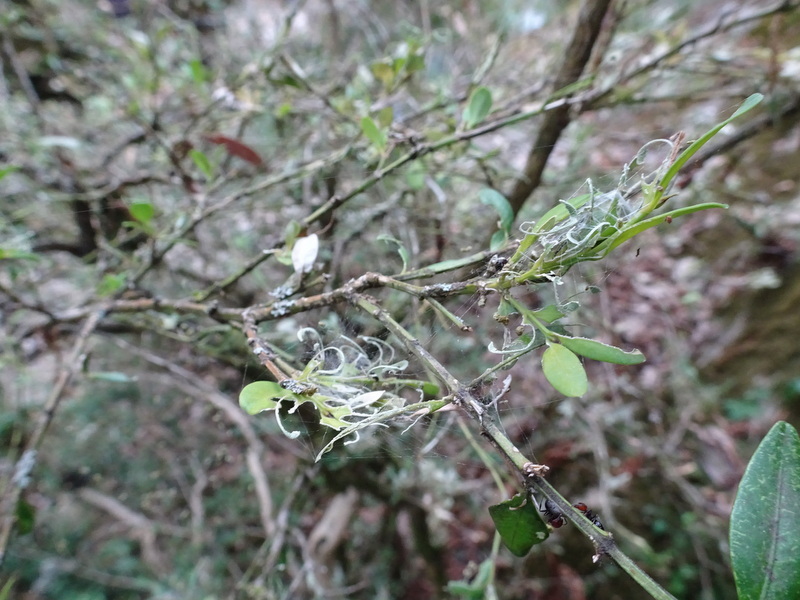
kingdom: Animalia
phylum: Arthropoda
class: Insecta
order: Lepidoptera
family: Crambidae
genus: Cydalima
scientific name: Cydalima perspectalis
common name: Box tree moth
